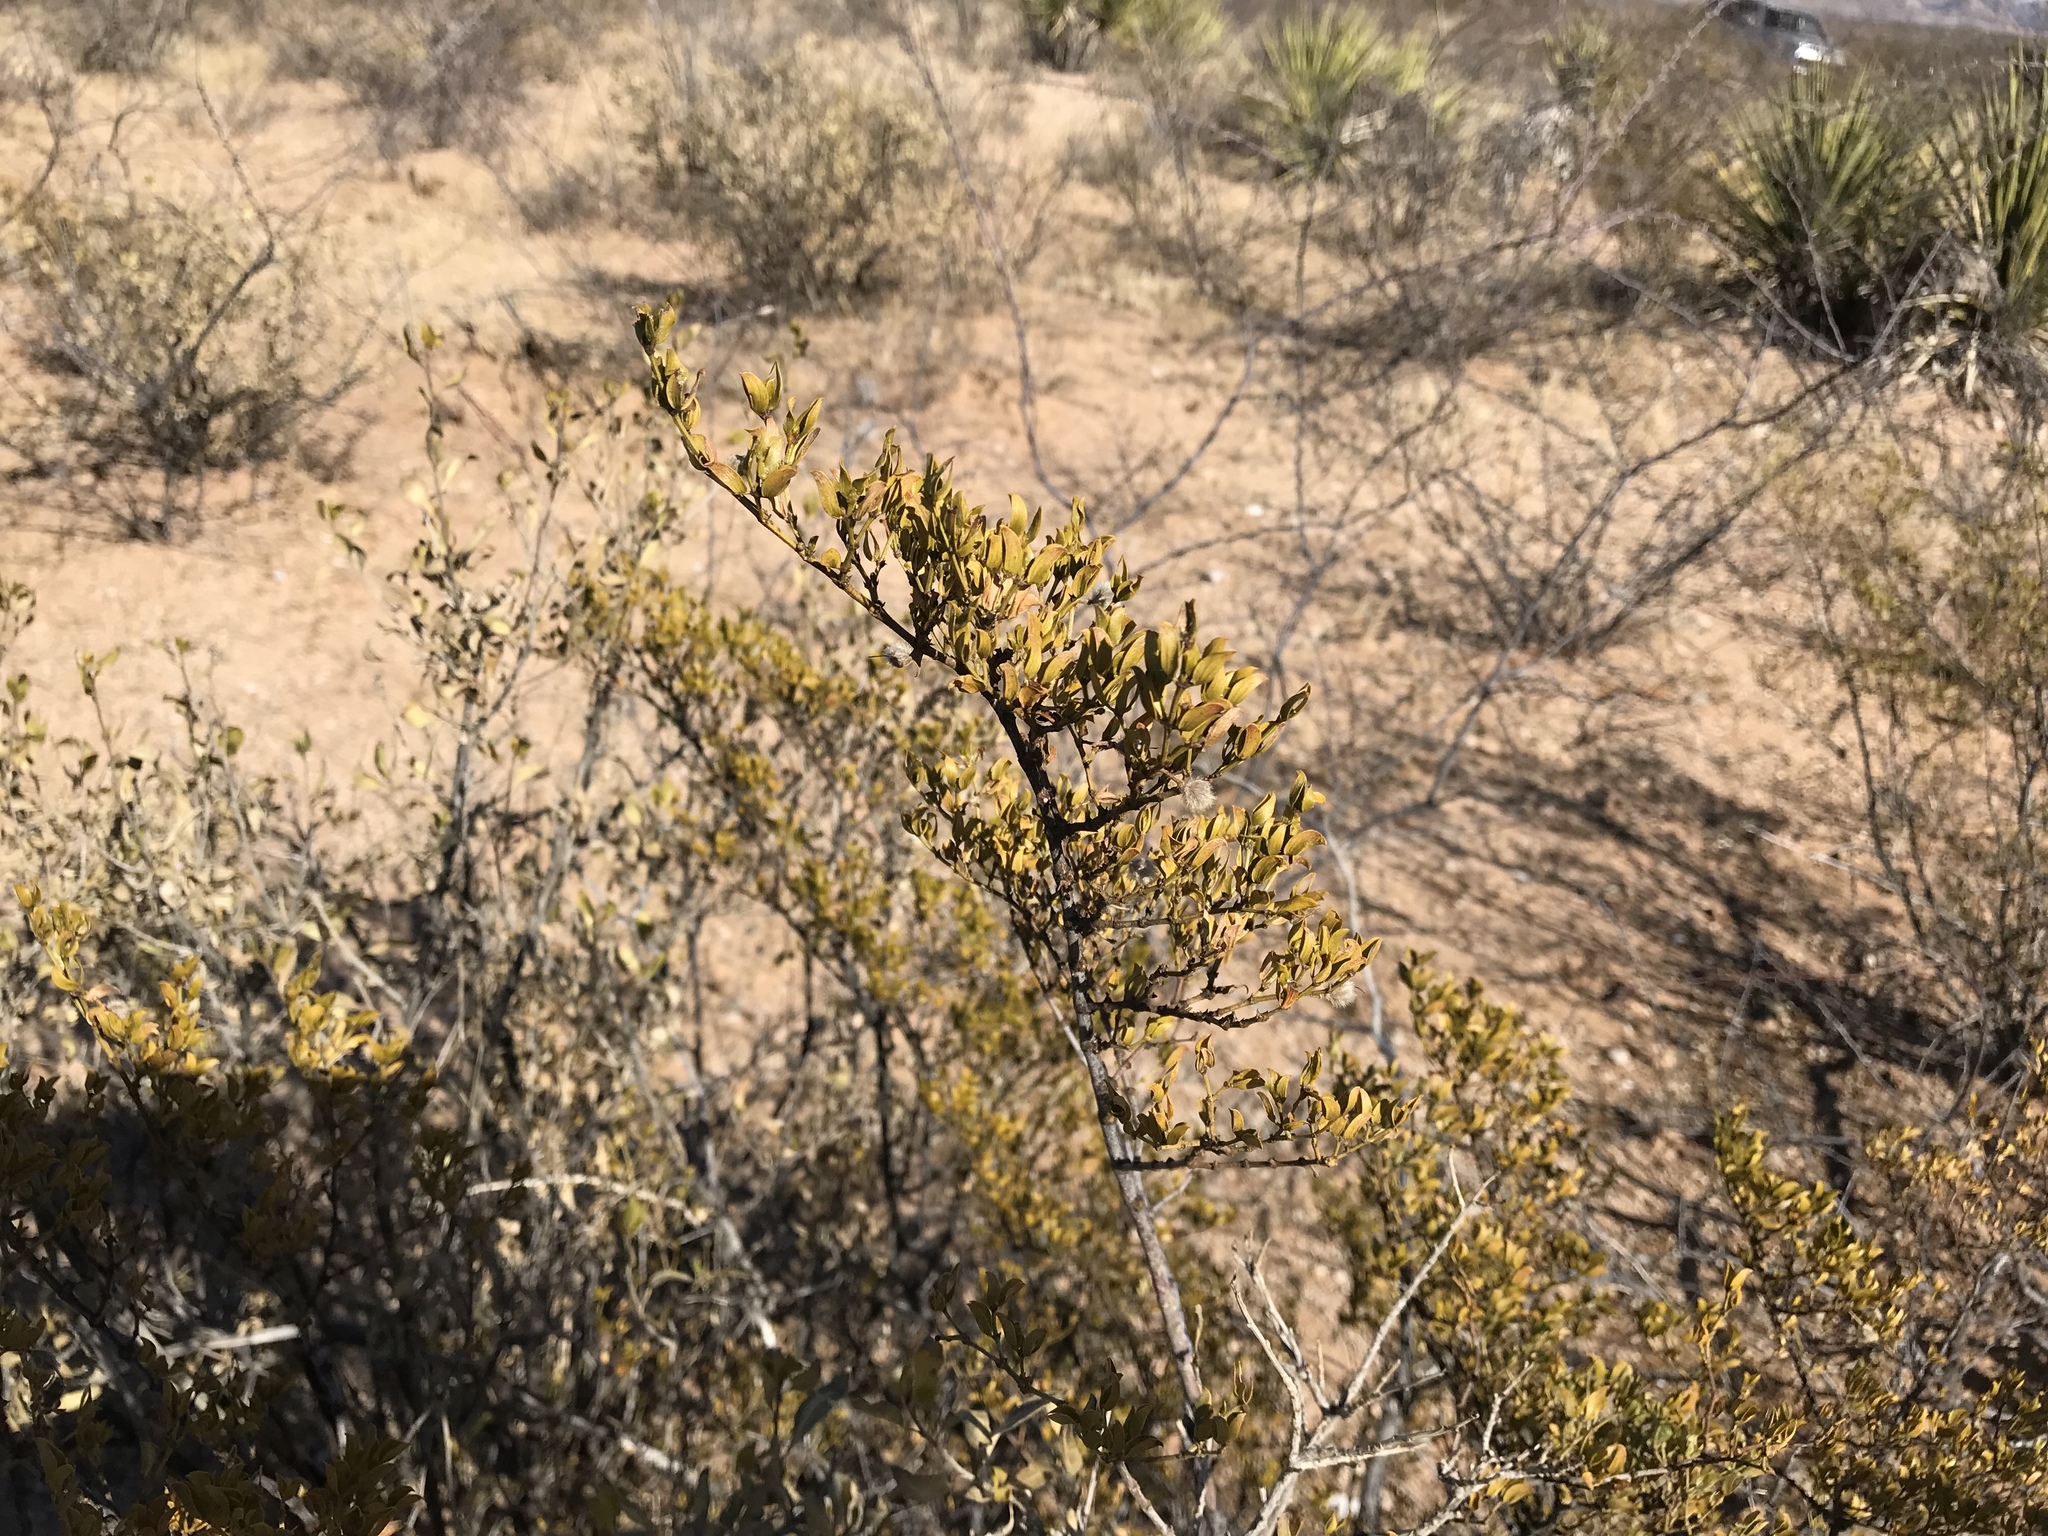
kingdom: Plantae
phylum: Tracheophyta
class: Magnoliopsida
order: Zygophyllales
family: Zygophyllaceae
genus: Larrea
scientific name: Larrea tridentata
